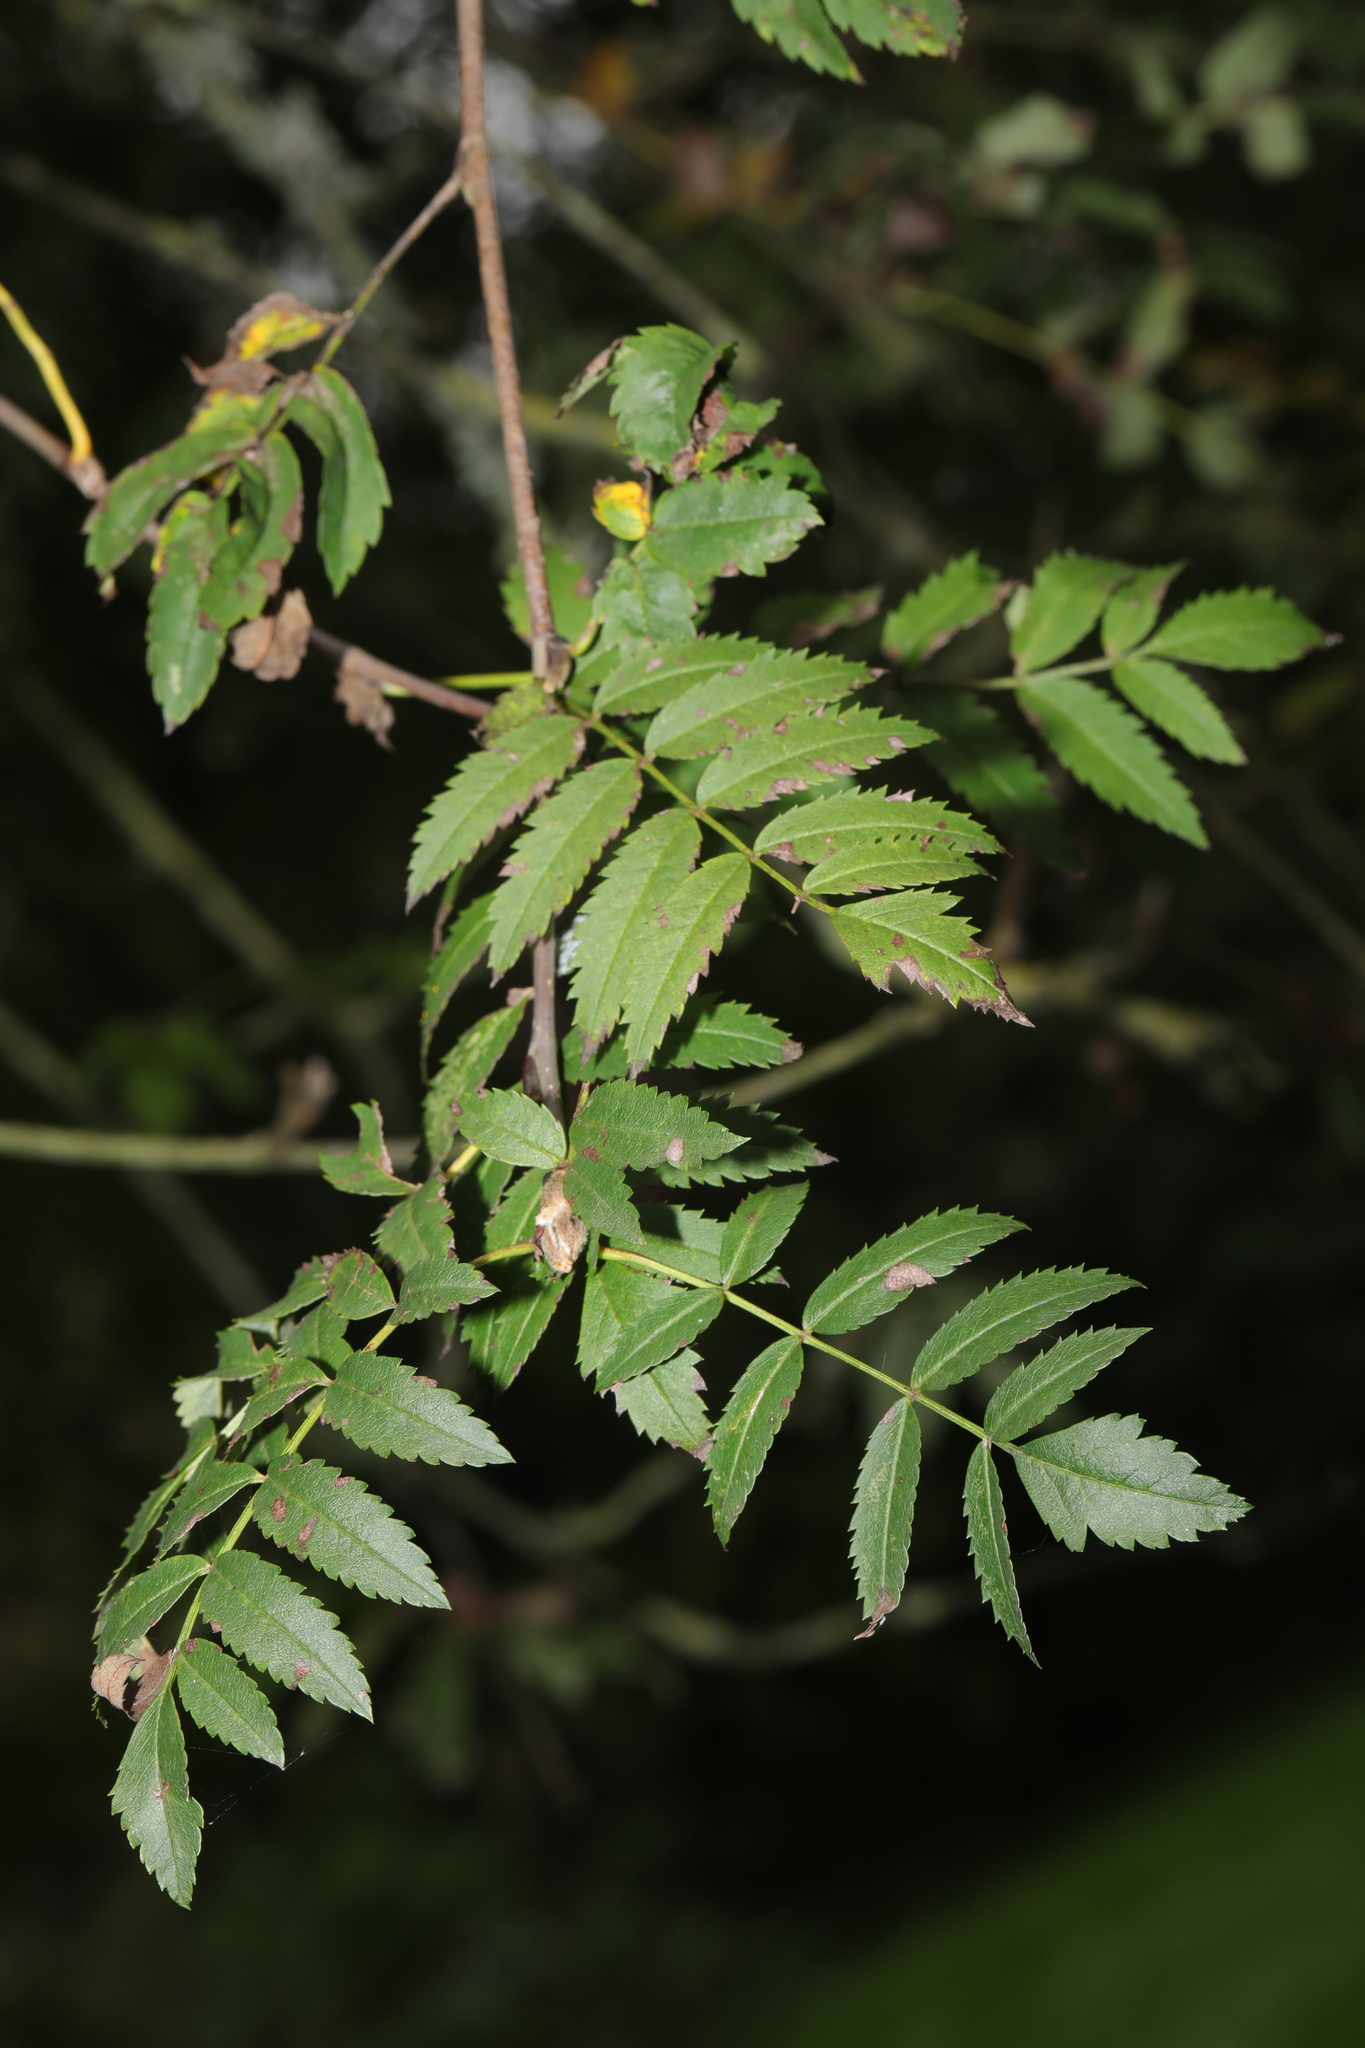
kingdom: Plantae
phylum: Tracheophyta
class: Magnoliopsida
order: Rosales
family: Rosaceae
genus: Sorbus
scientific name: Sorbus aucuparia
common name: Rowan
